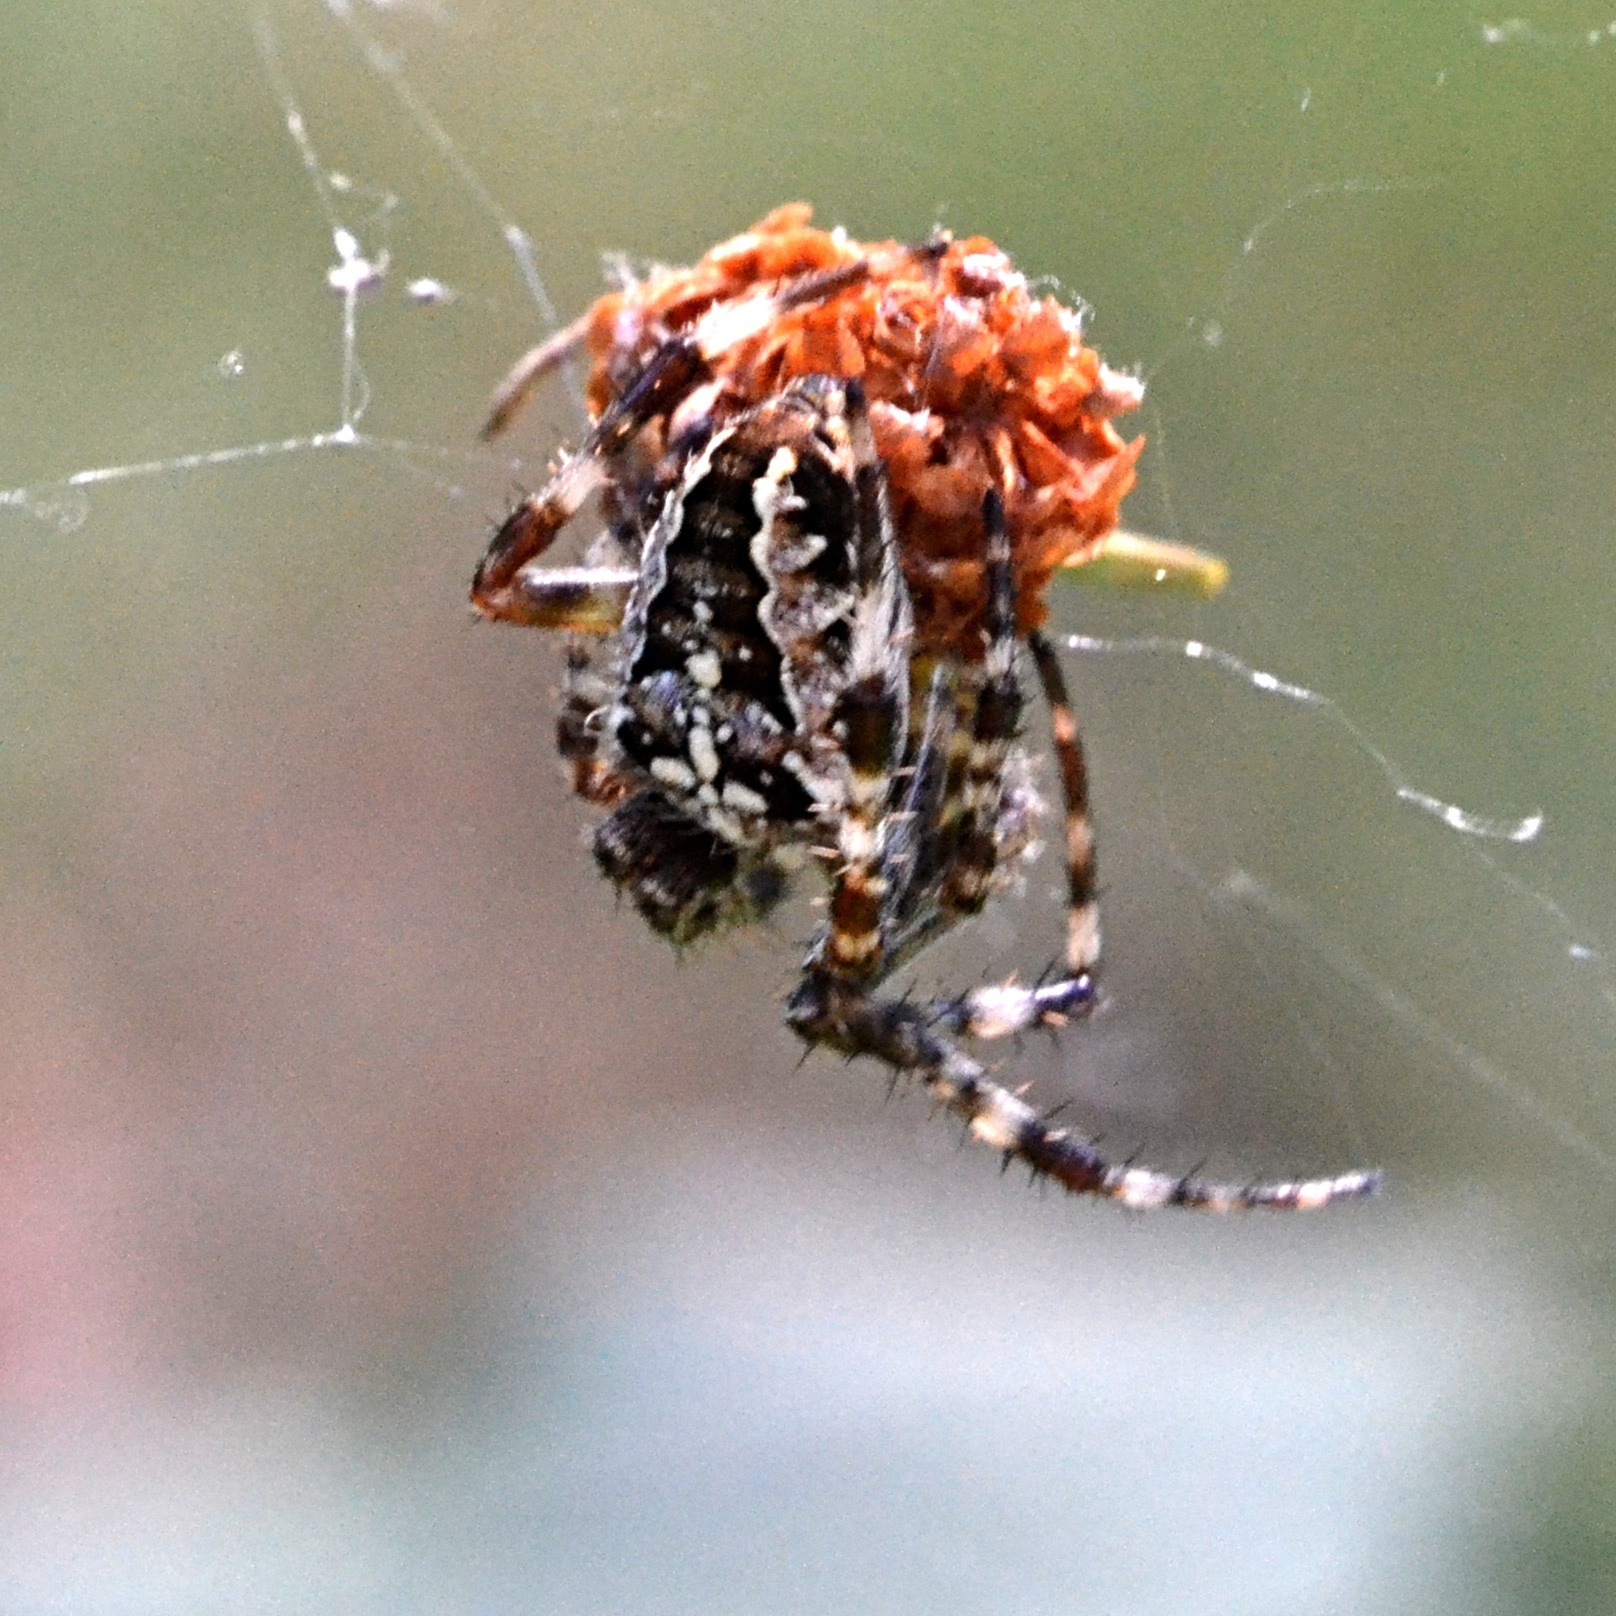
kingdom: Animalia
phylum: Arthropoda
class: Arachnida
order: Araneae
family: Araneidae
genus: Araneus
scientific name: Araneus diadematus
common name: Cross orbweaver
